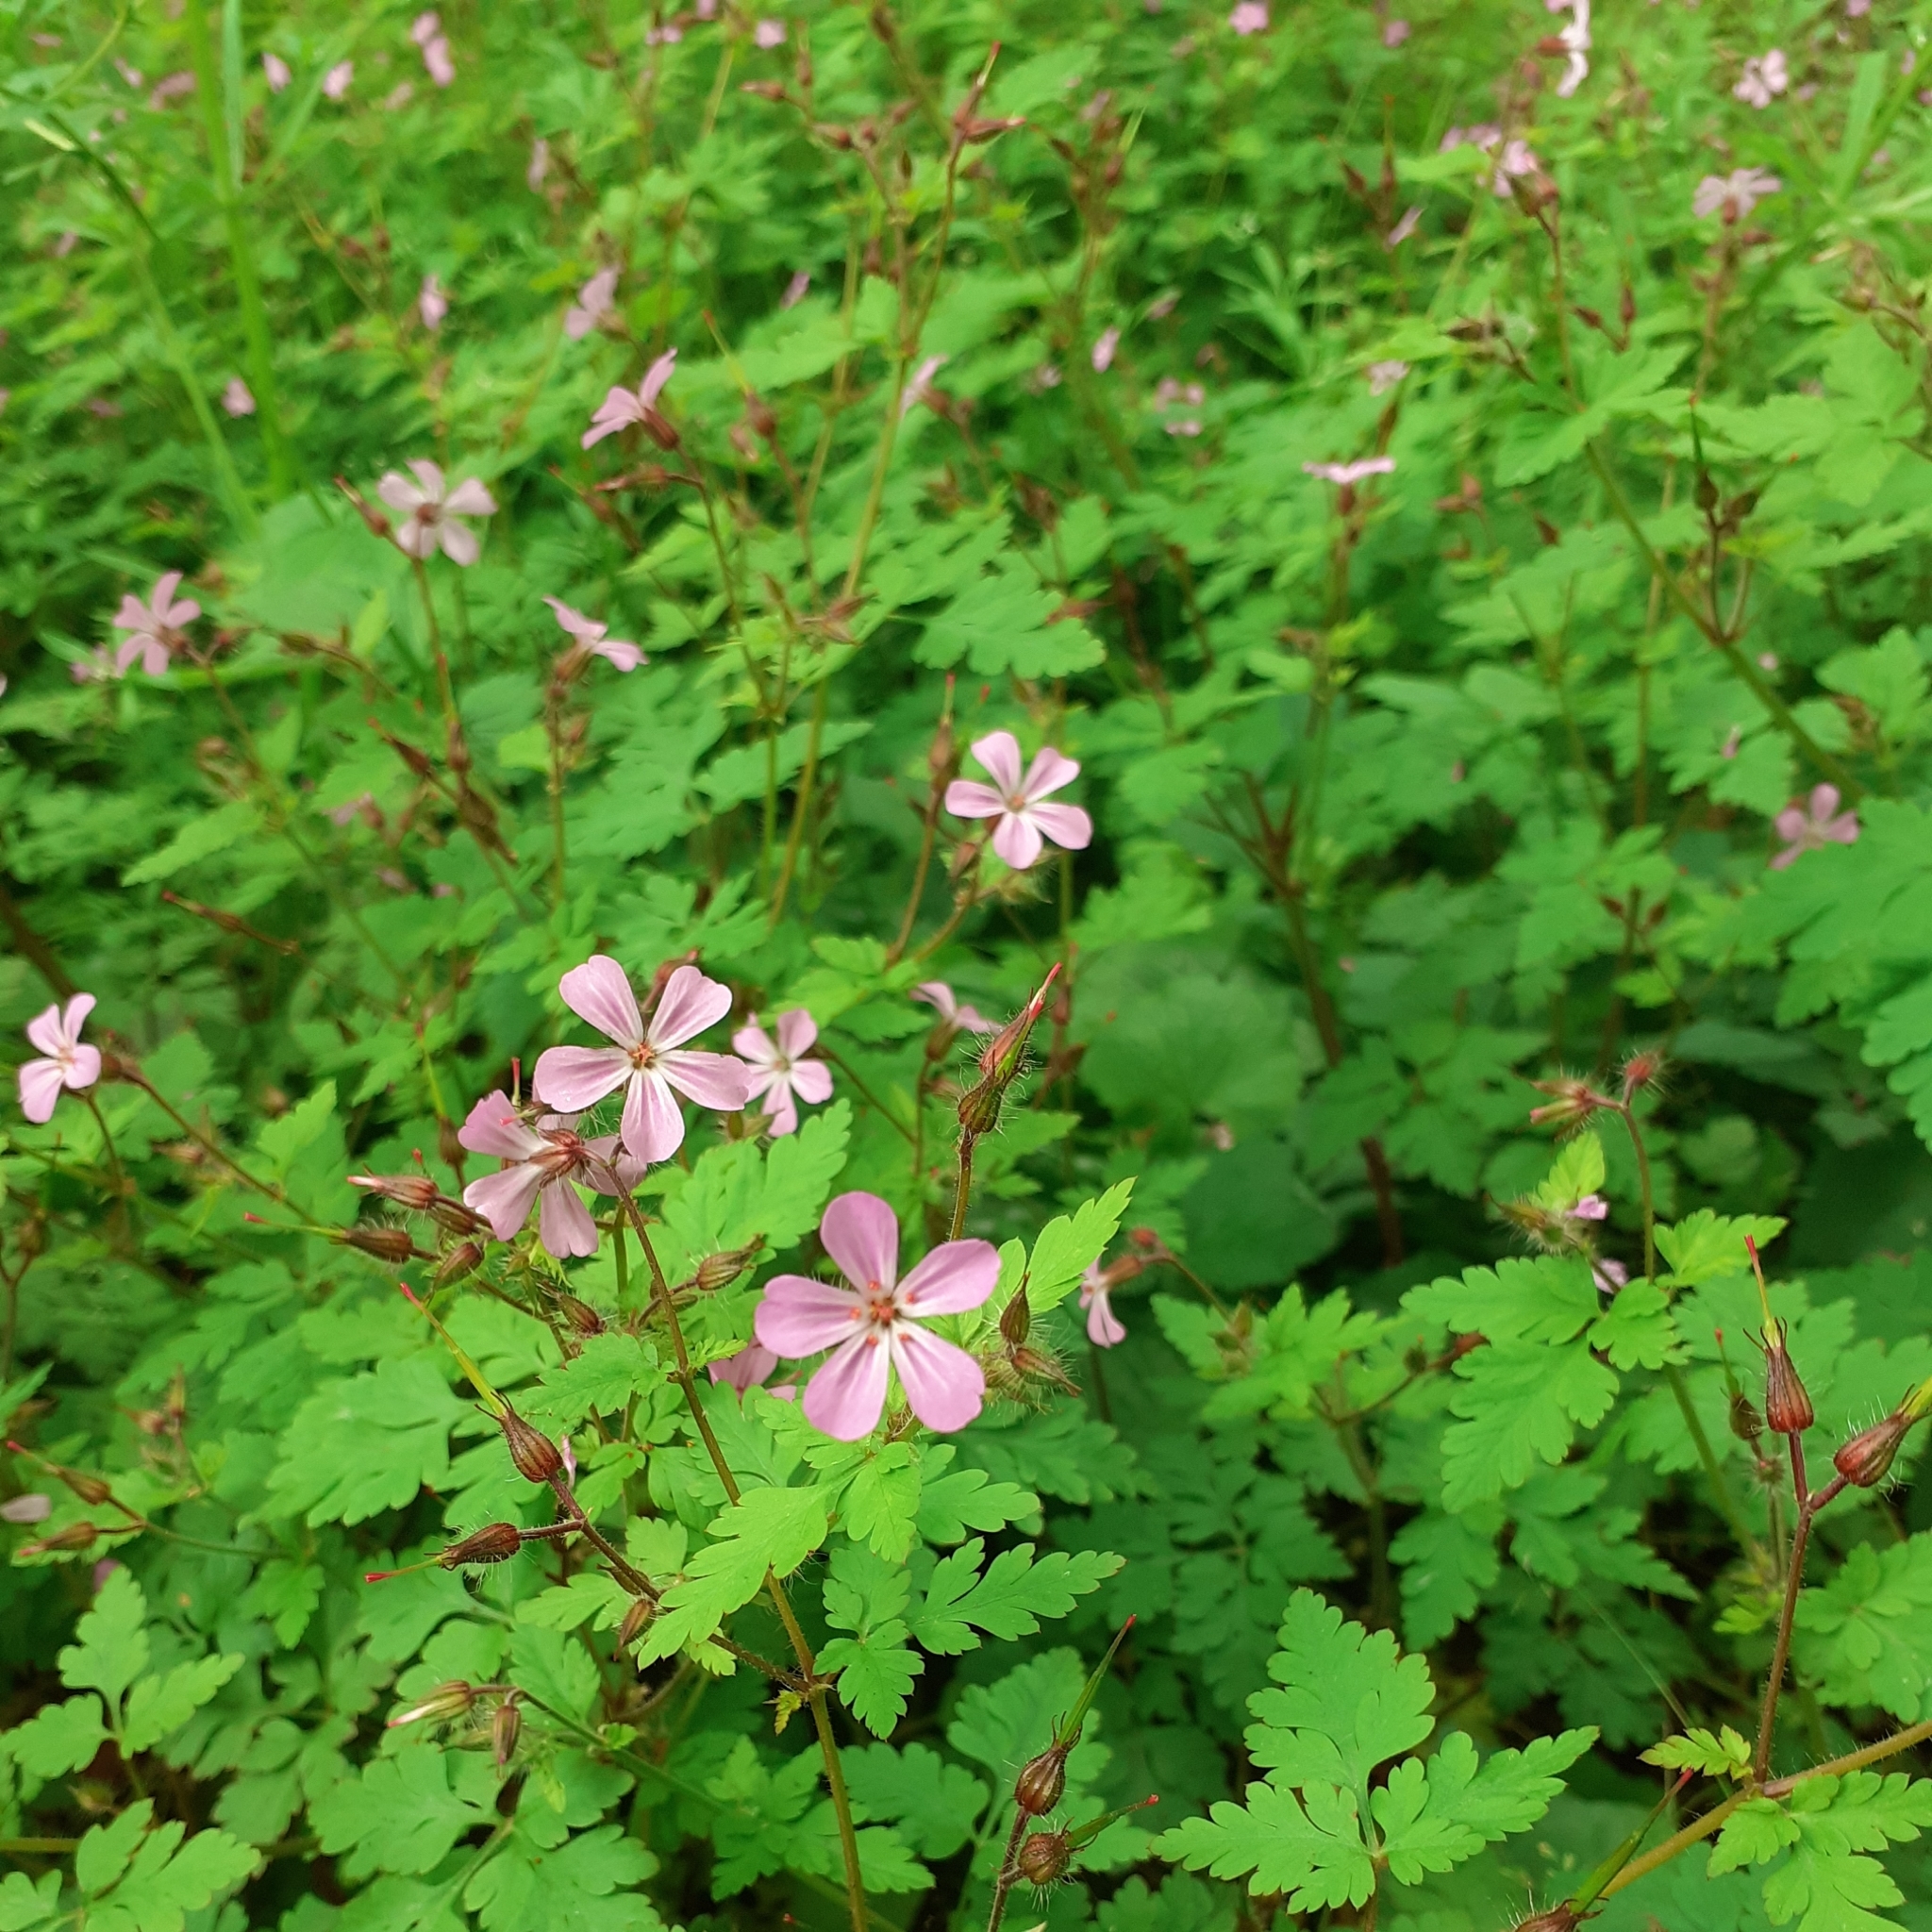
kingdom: Plantae
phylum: Tracheophyta
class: Magnoliopsida
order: Geraniales
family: Geraniaceae
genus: Geranium
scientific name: Geranium robertianum
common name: Herb-robert
